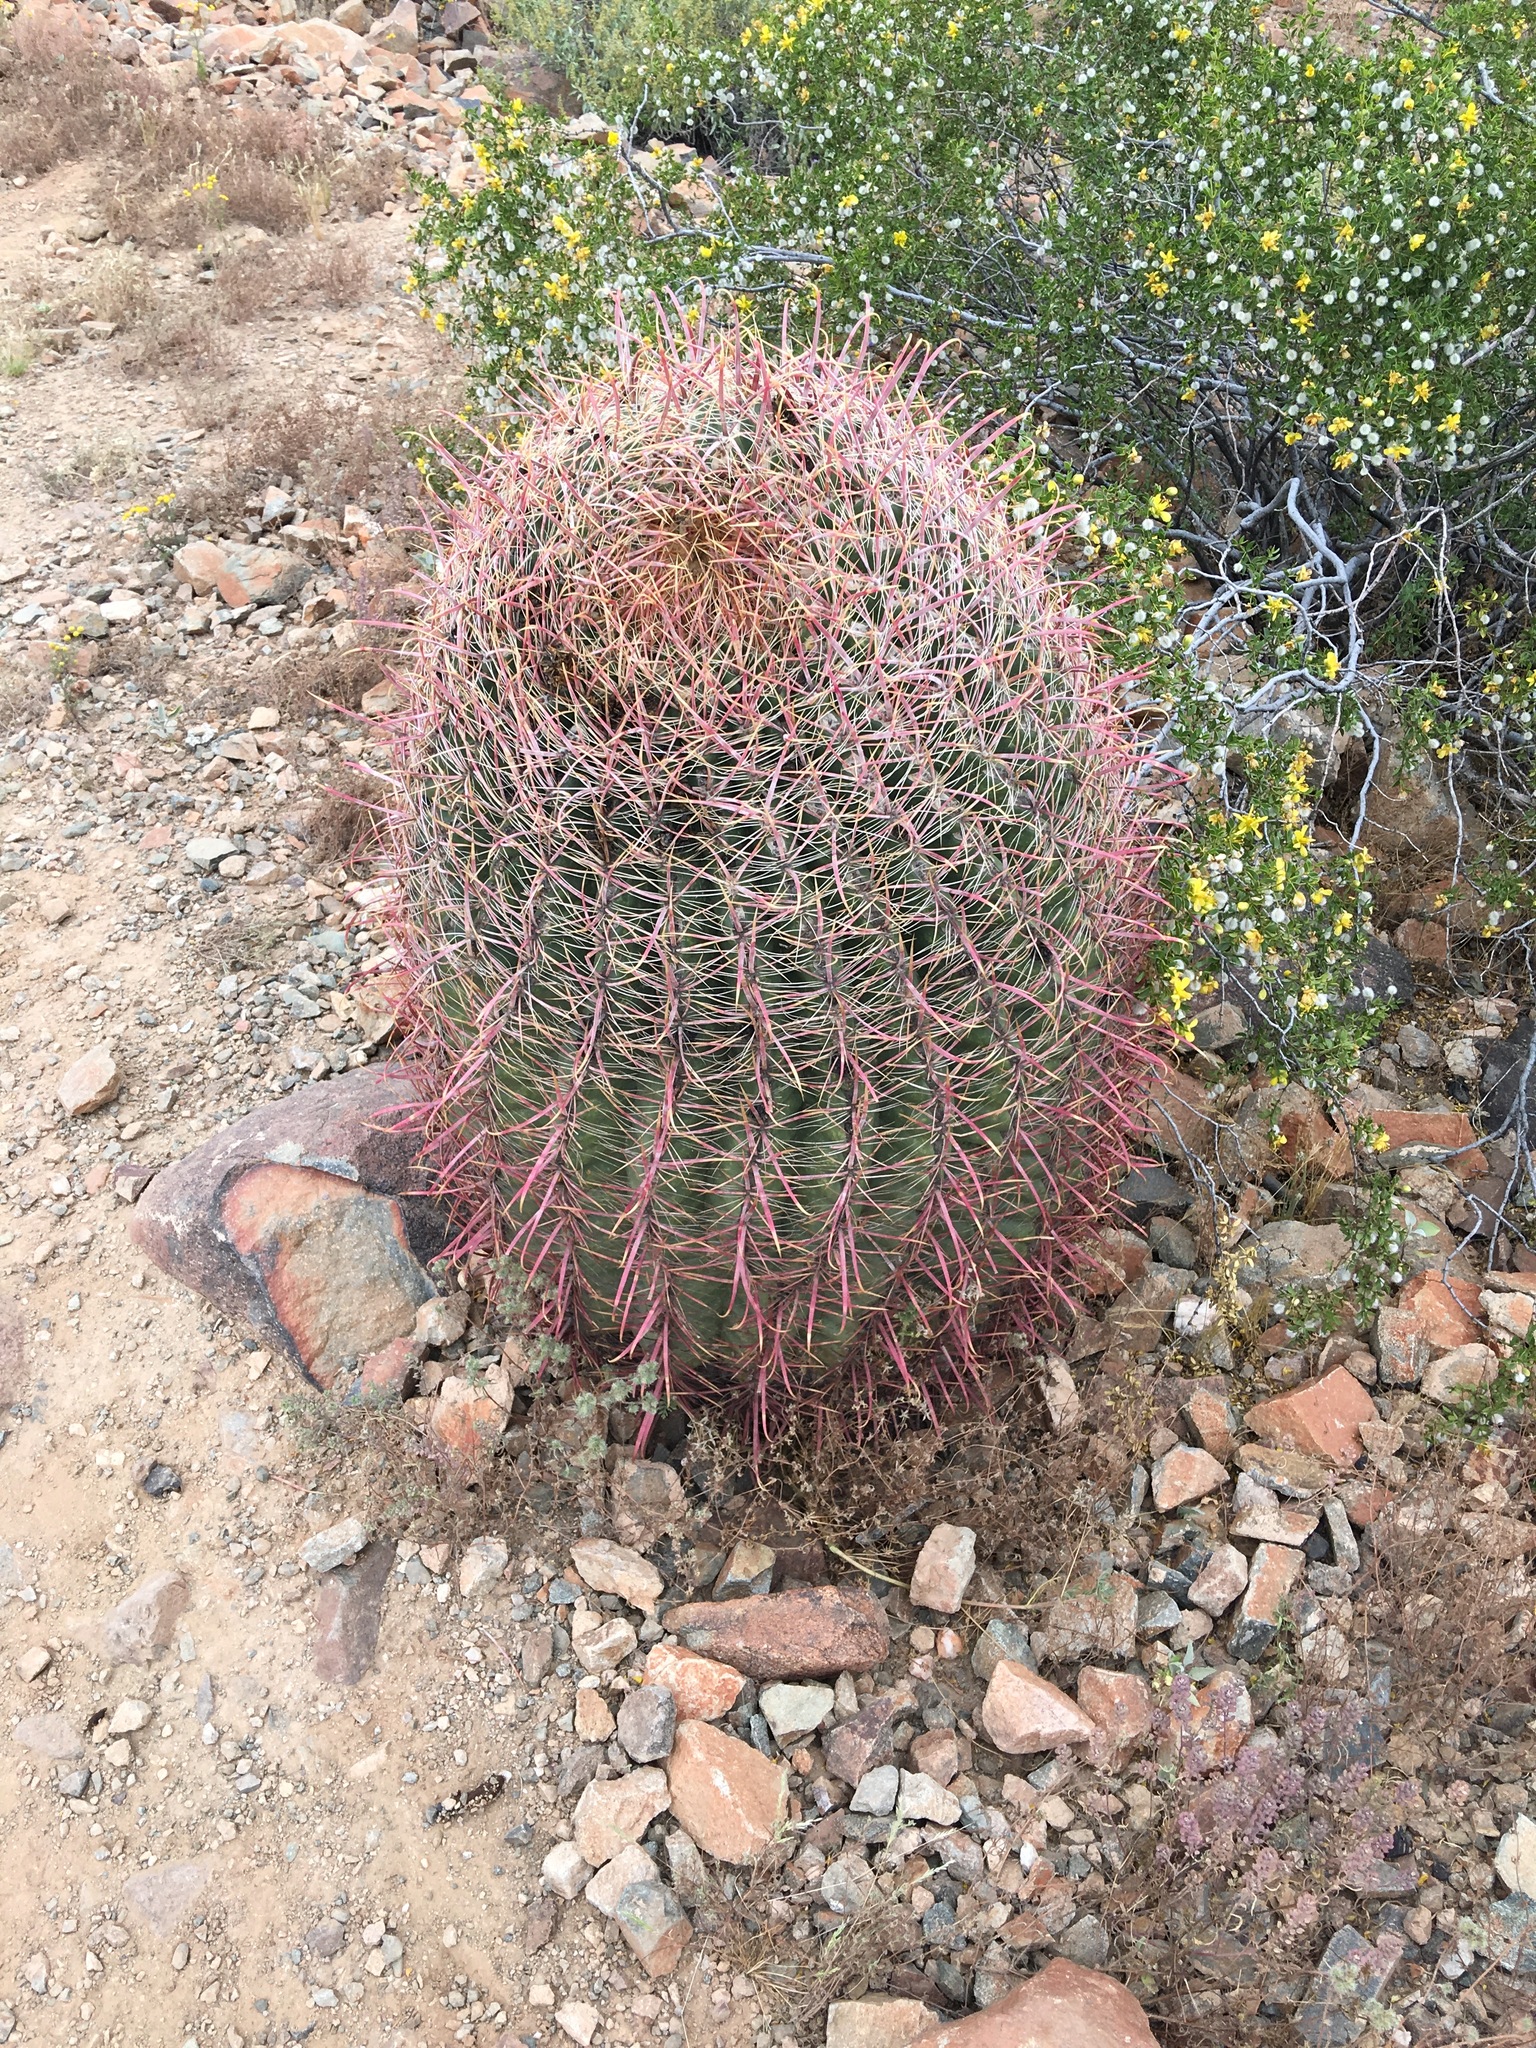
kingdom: Plantae
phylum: Tracheophyta
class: Magnoliopsida
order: Caryophyllales
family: Cactaceae
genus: Ferocactus
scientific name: Ferocactus cylindraceus
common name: California barrel cactus
